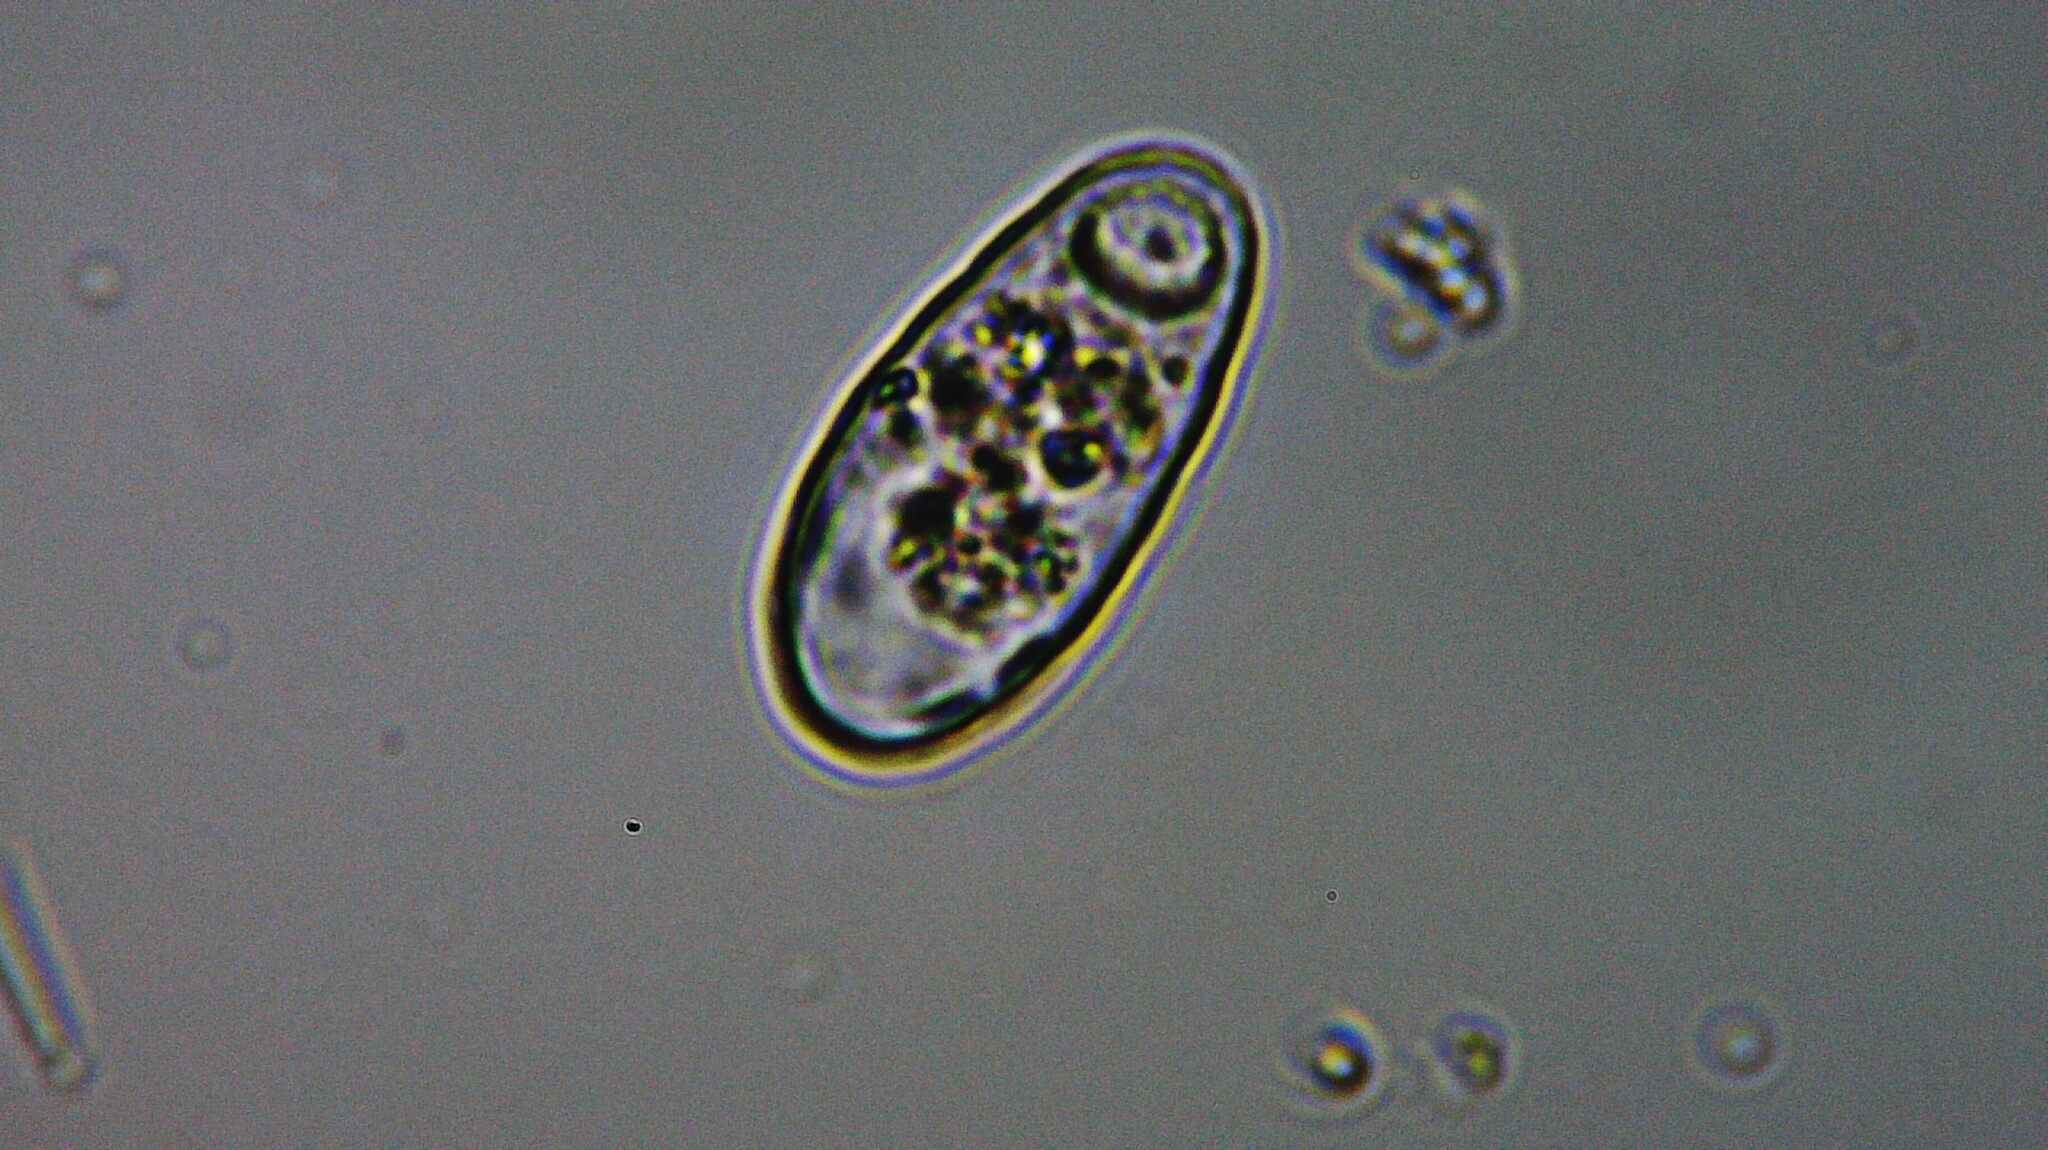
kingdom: Chromista
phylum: Cercozoa
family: Trinematidae
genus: Trinema
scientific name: Trinema lineare
